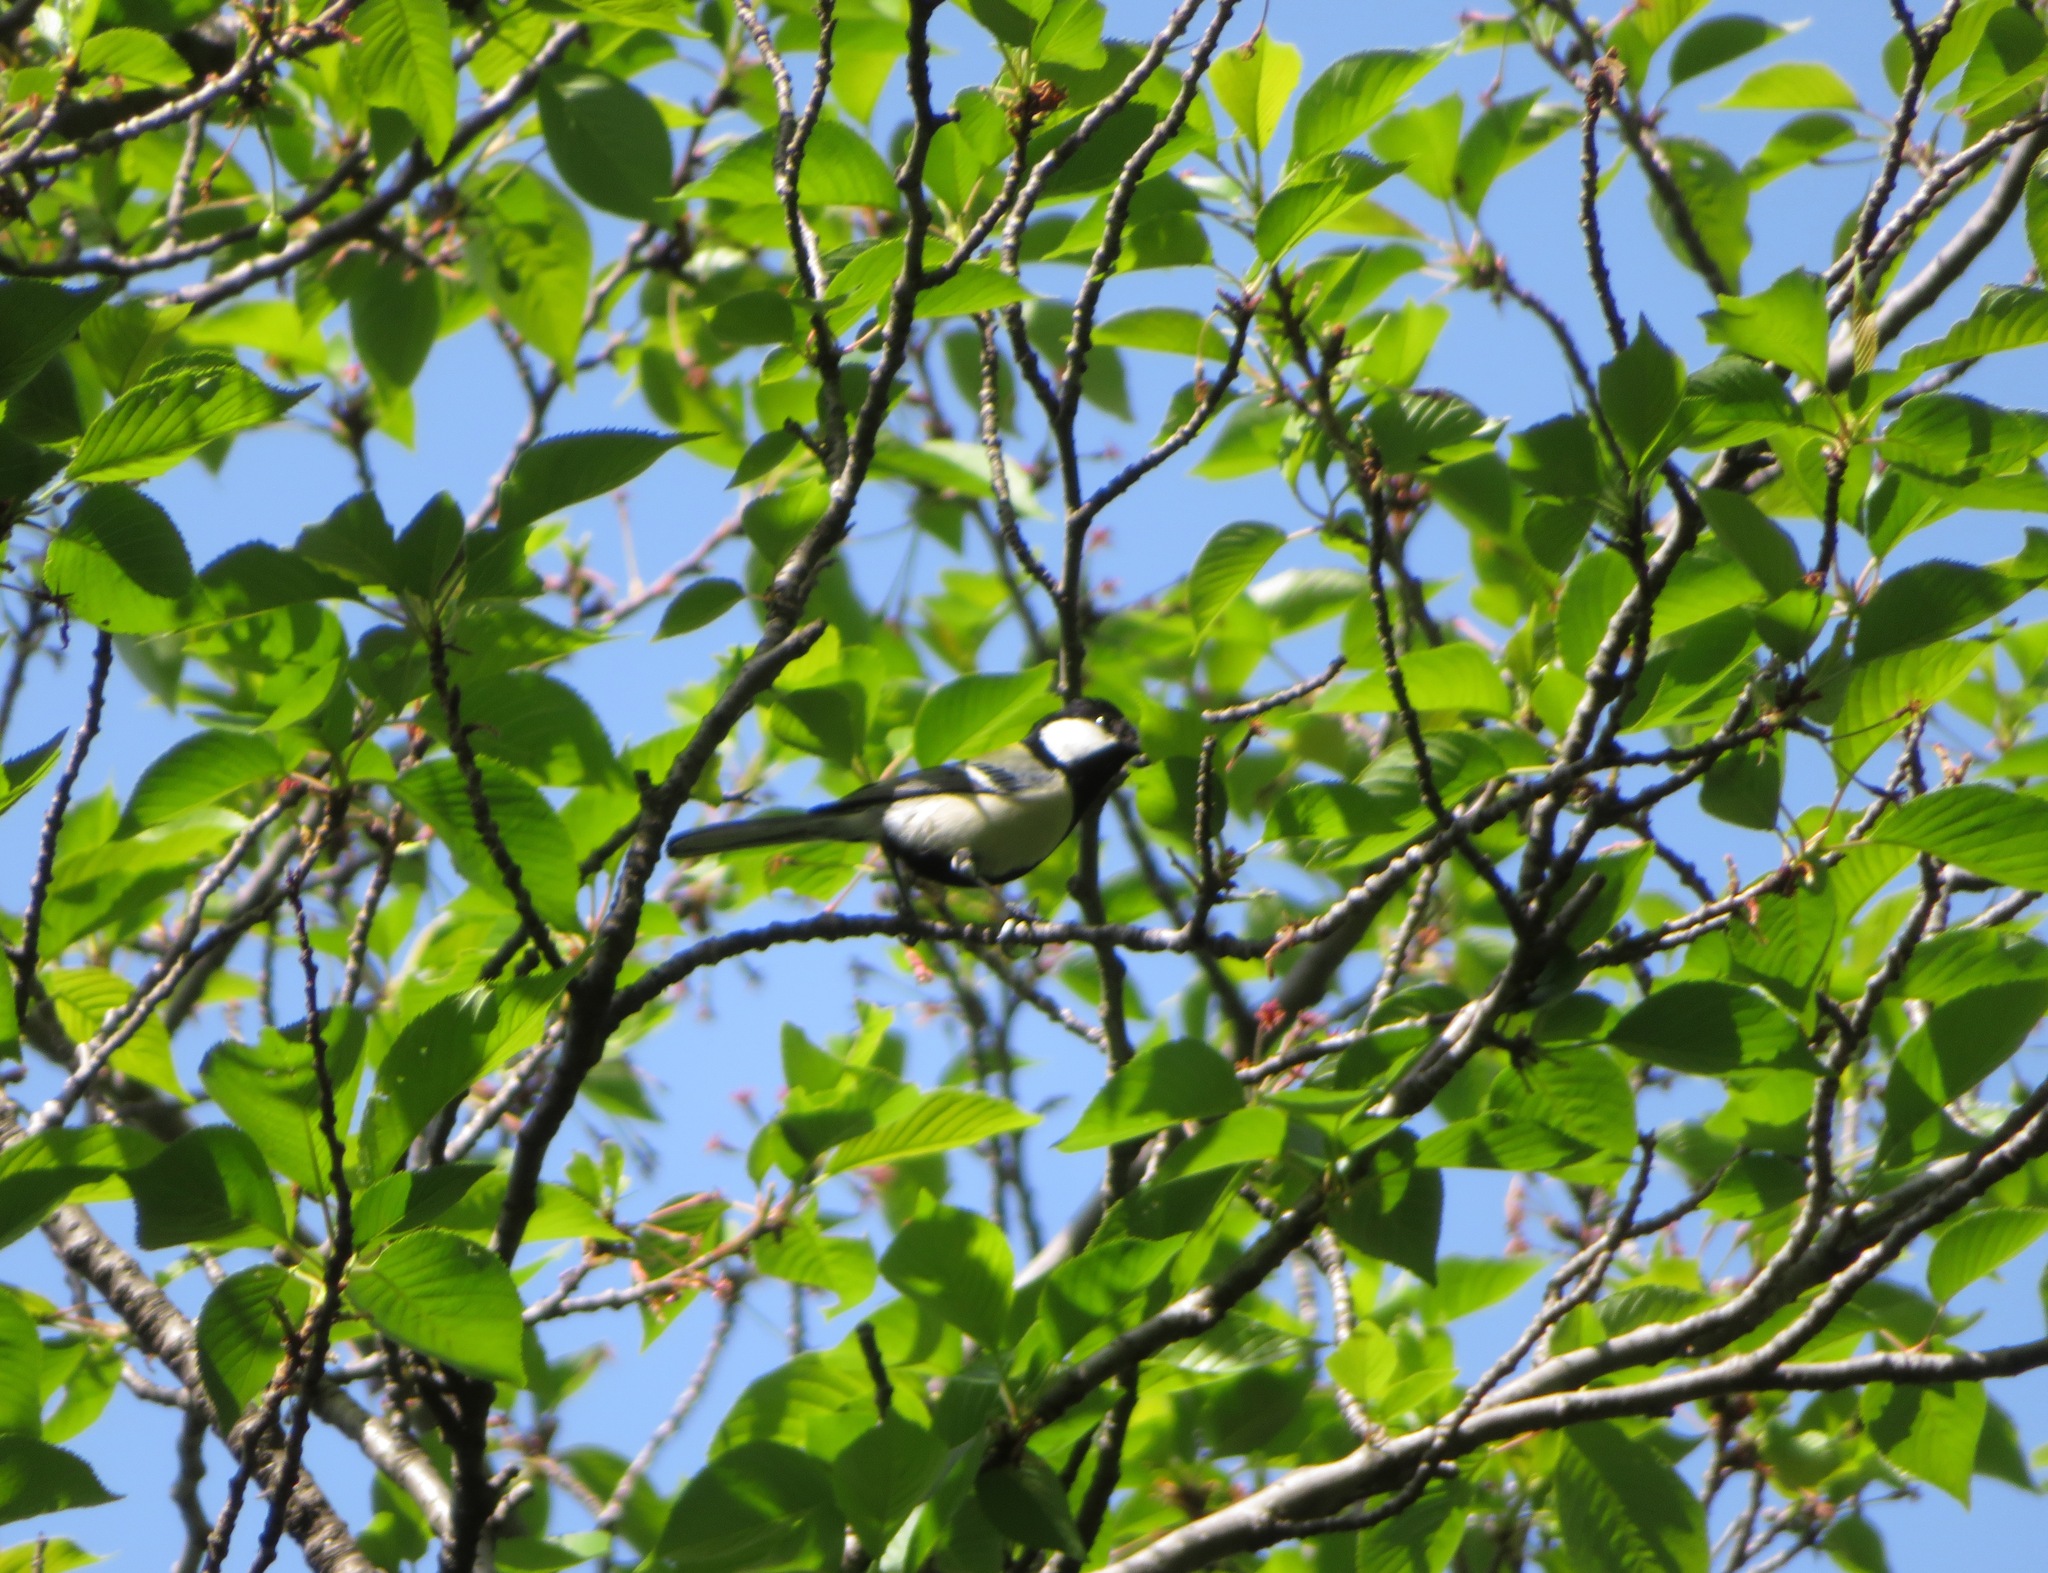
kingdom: Animalia
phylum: Chordata
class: Aves
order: Passeriformes
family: Paridae
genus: Parus
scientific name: Parus minor
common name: Japanese tit
